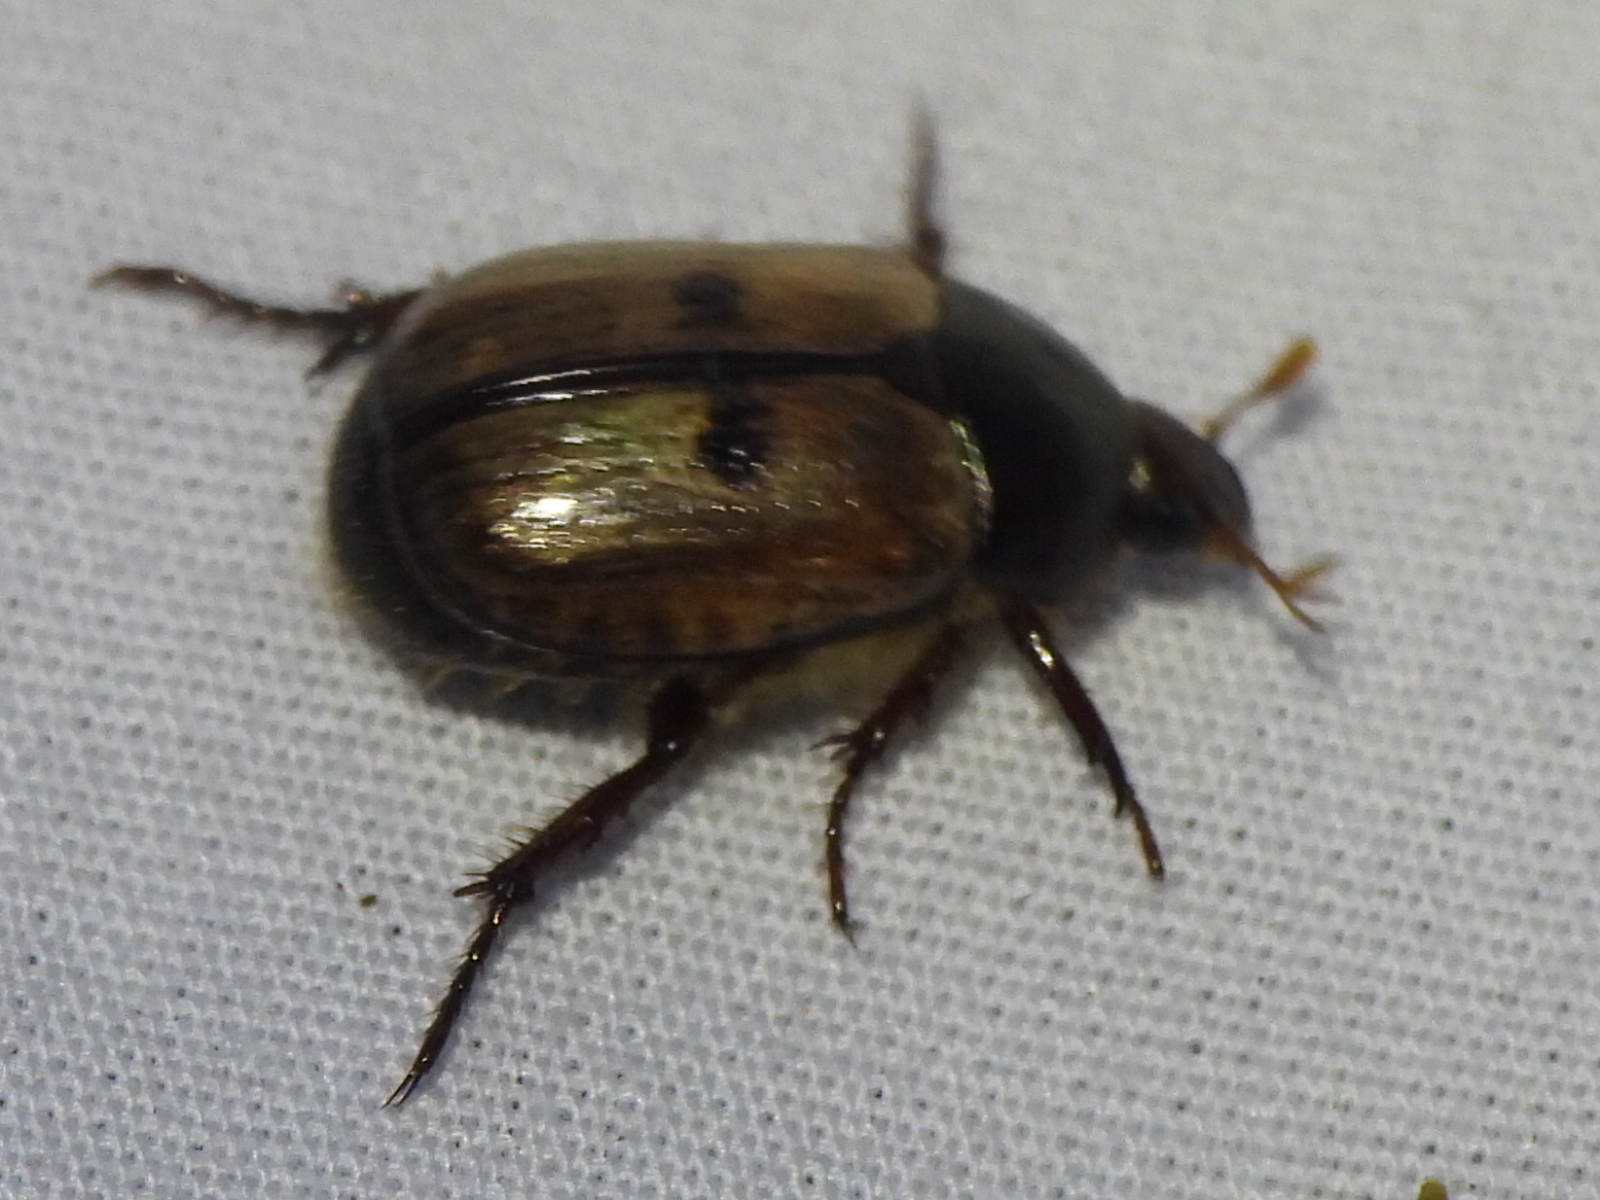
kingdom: Animalia
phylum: Arthropoda
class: Insecta
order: Coleoptera
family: Scarabaeidae
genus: Paranomala
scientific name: Paranomala binotata
